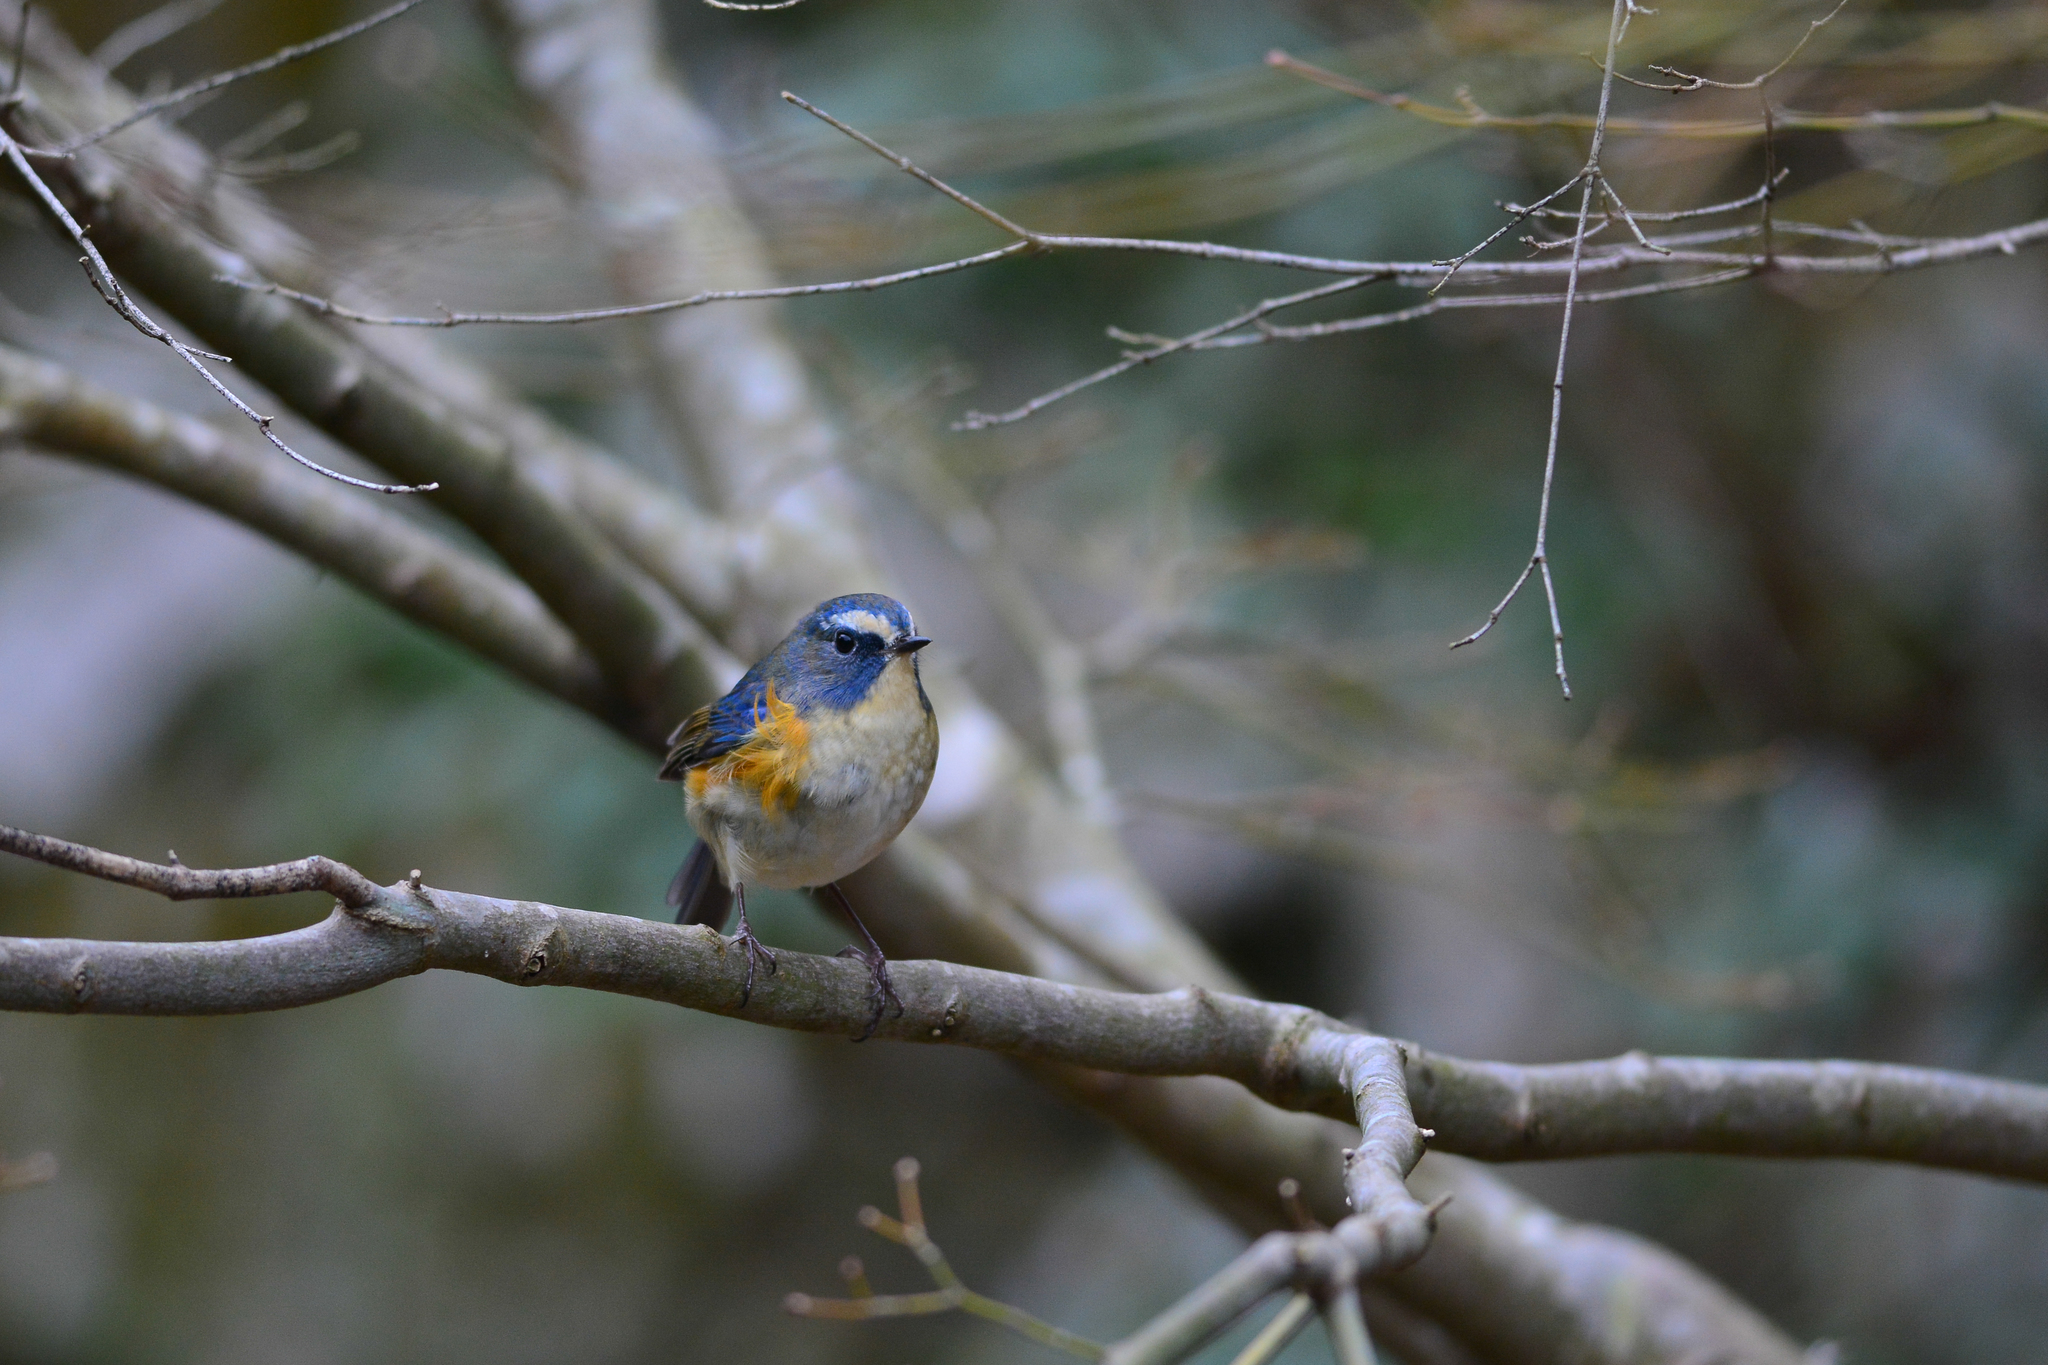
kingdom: Animalia
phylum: Chordata
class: Aves
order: Passeriformes
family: Muscicapidae
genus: Tarsiger
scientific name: Tarsiger cyanurus
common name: Red-flanked bluetail
